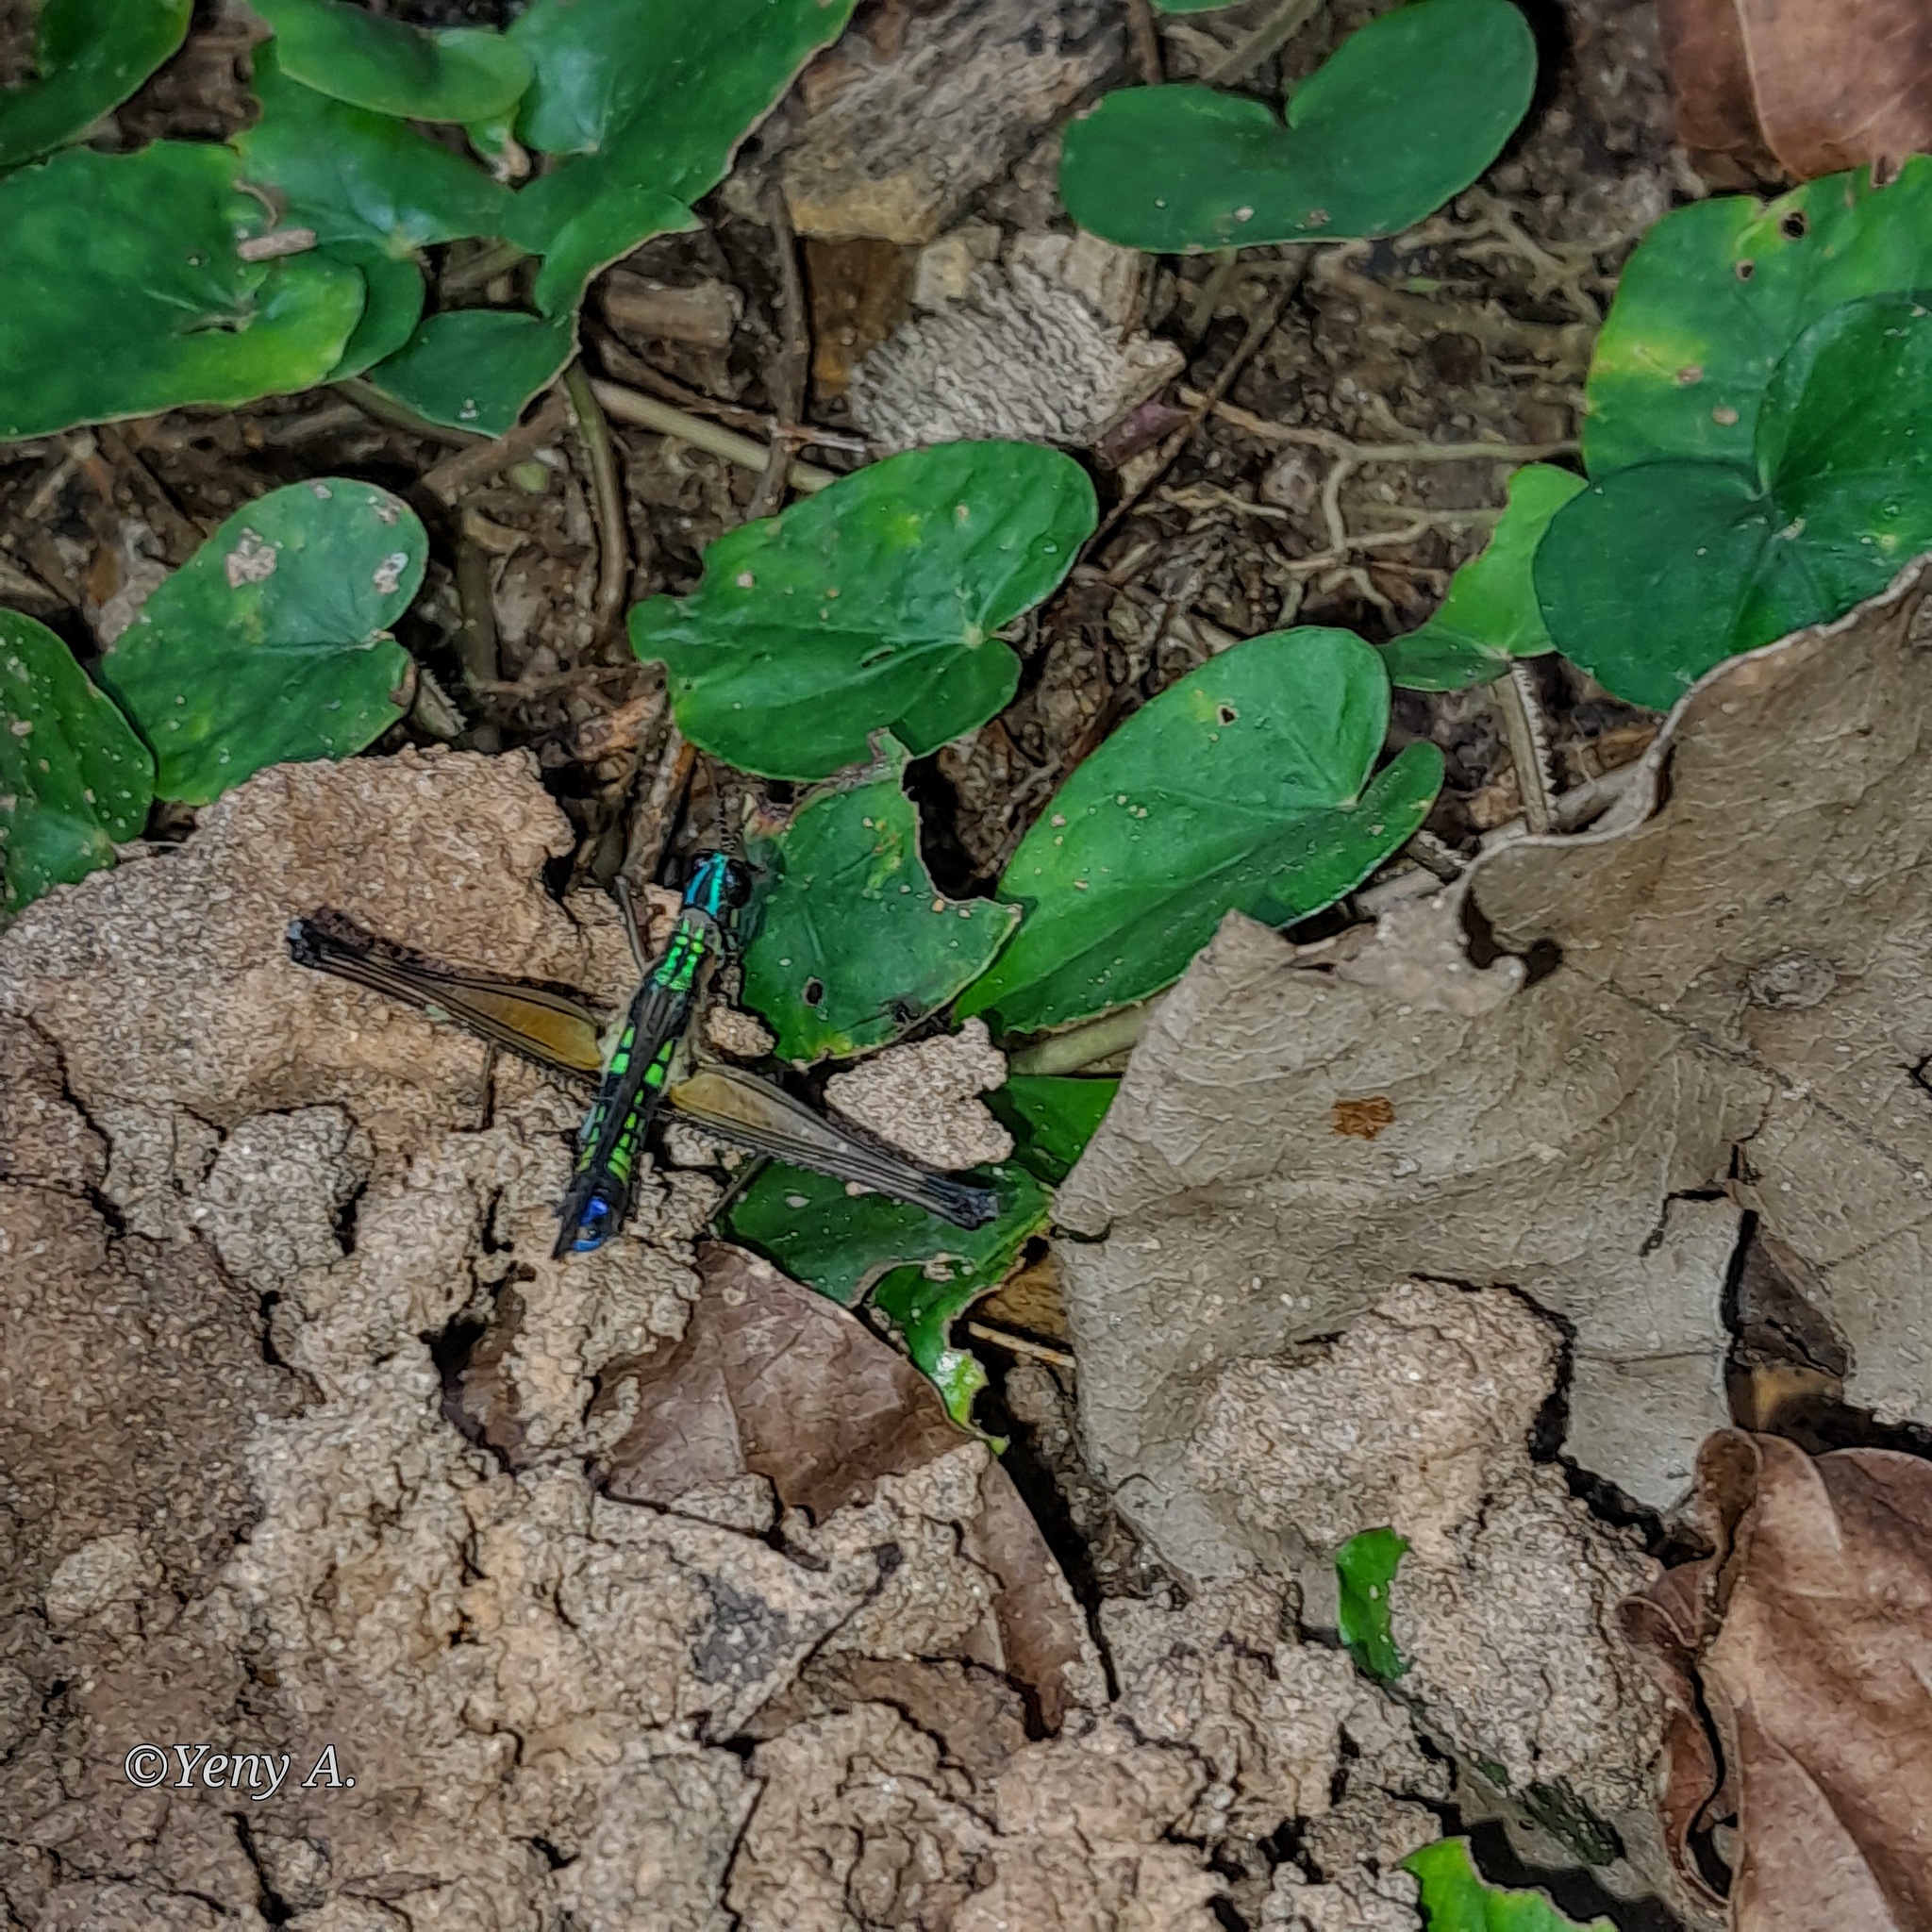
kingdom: Animalia
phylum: Arthropoda
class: Insecta
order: Orthoptera
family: Eumastacidae
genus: Eumastacops
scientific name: Eumastacops caligo
